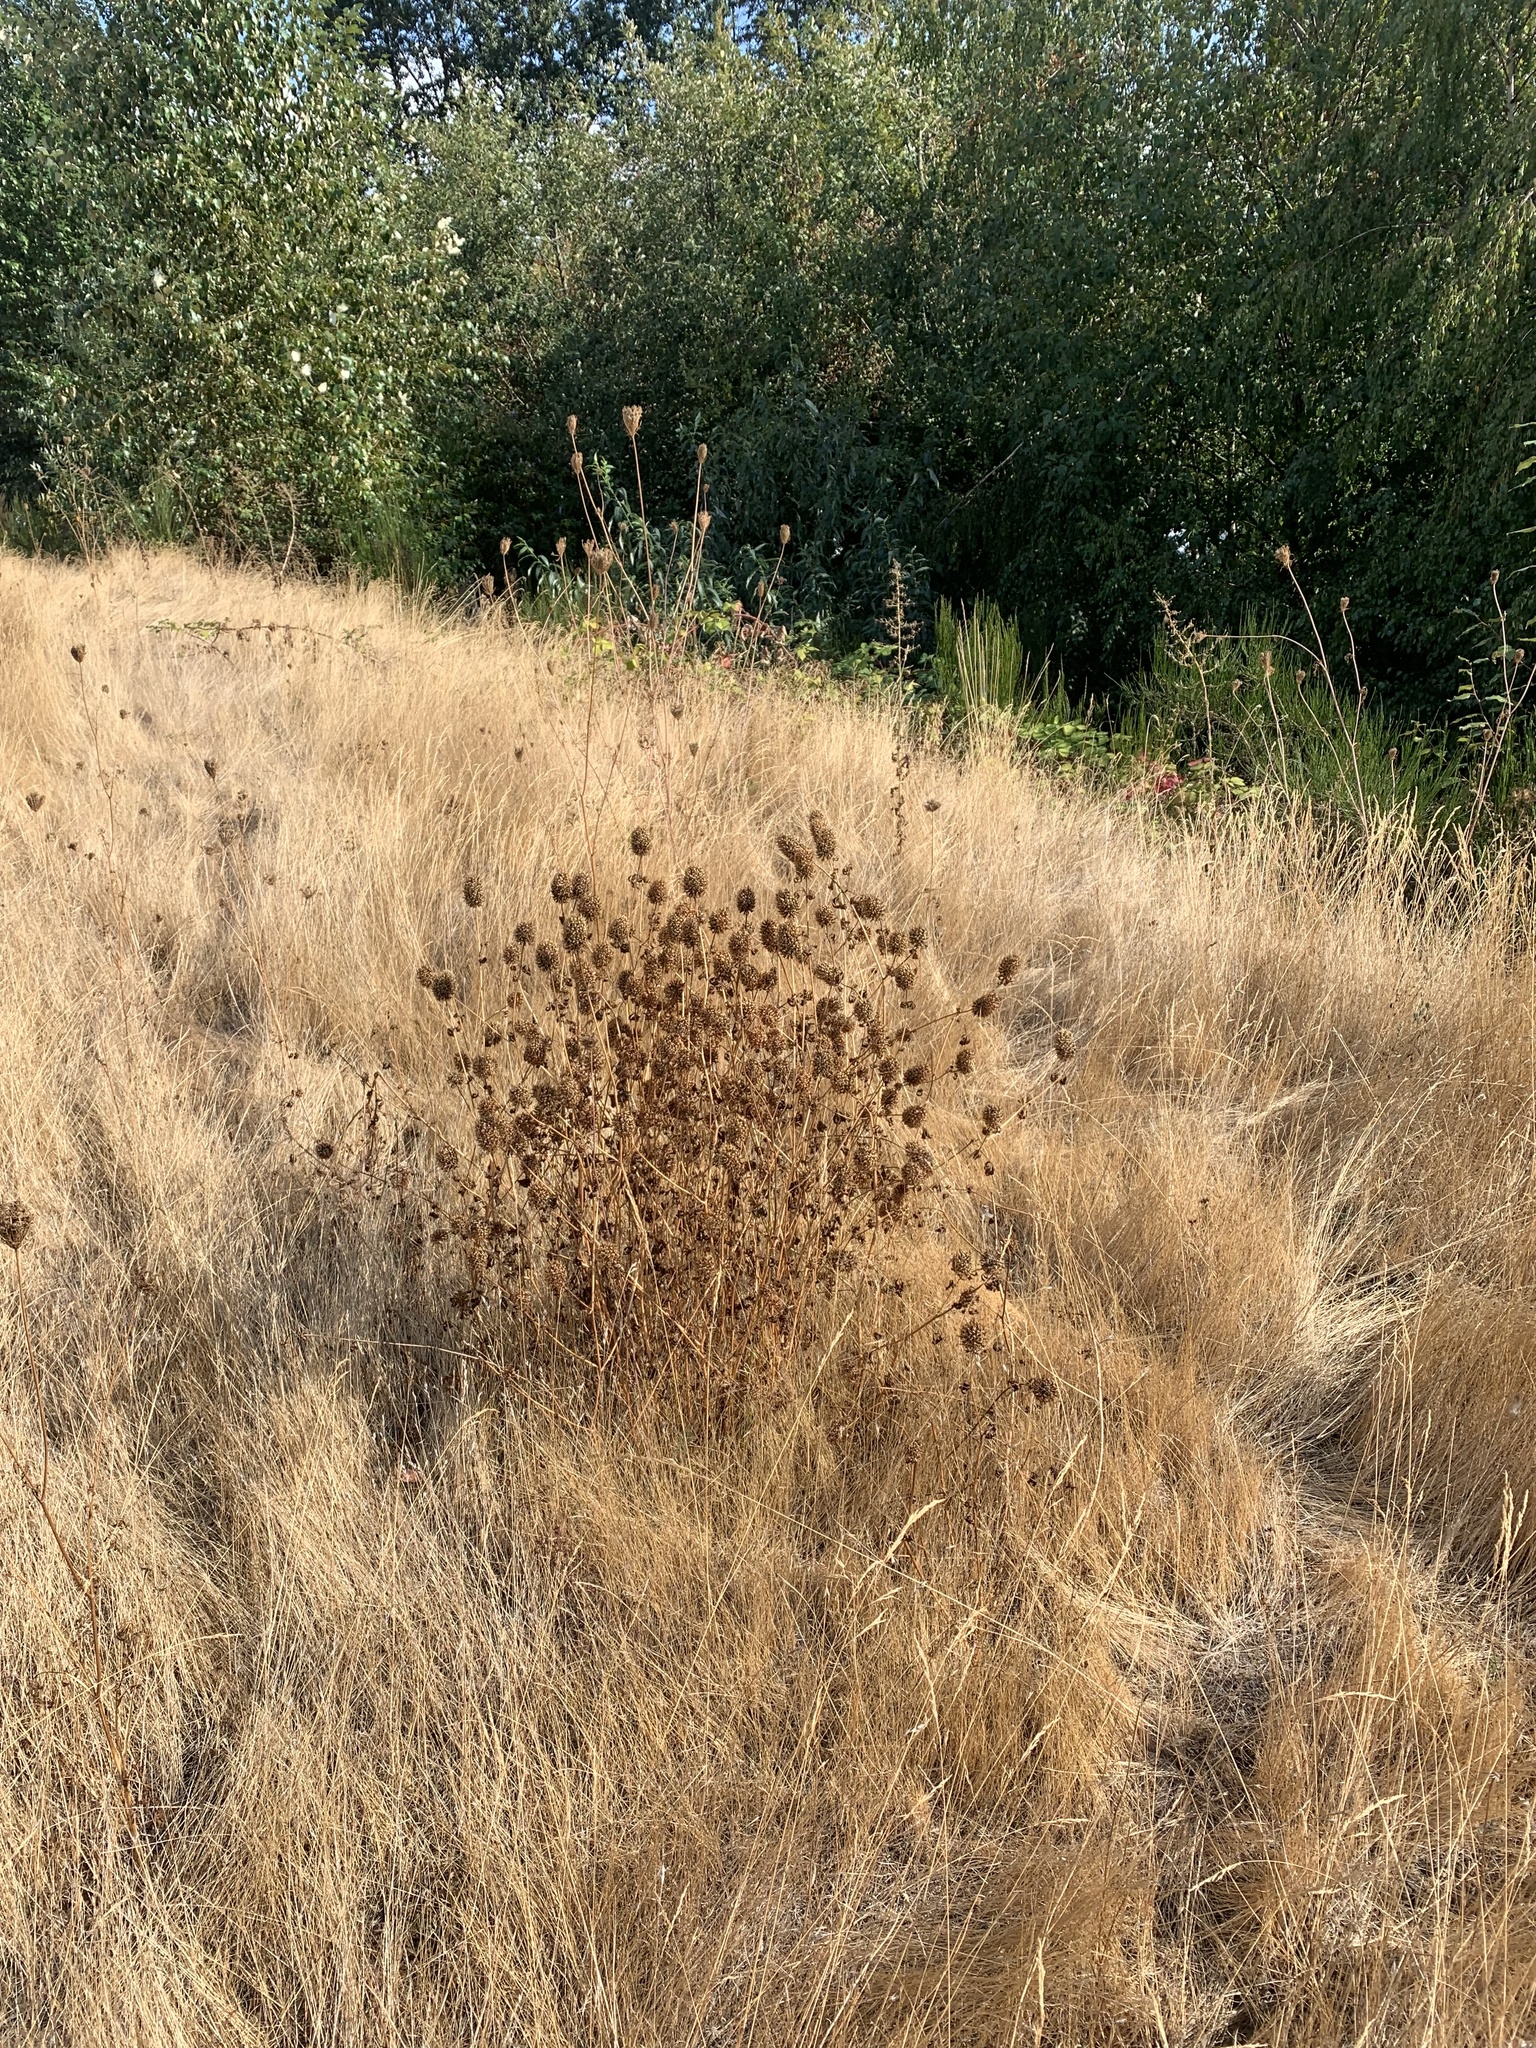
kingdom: Plantae
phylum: Tracheophyta
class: Magnoliopsida
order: Fabales
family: Fabaceae
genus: Trifolium
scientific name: Trifolium vesiculosum
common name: Arrowleaf clover
